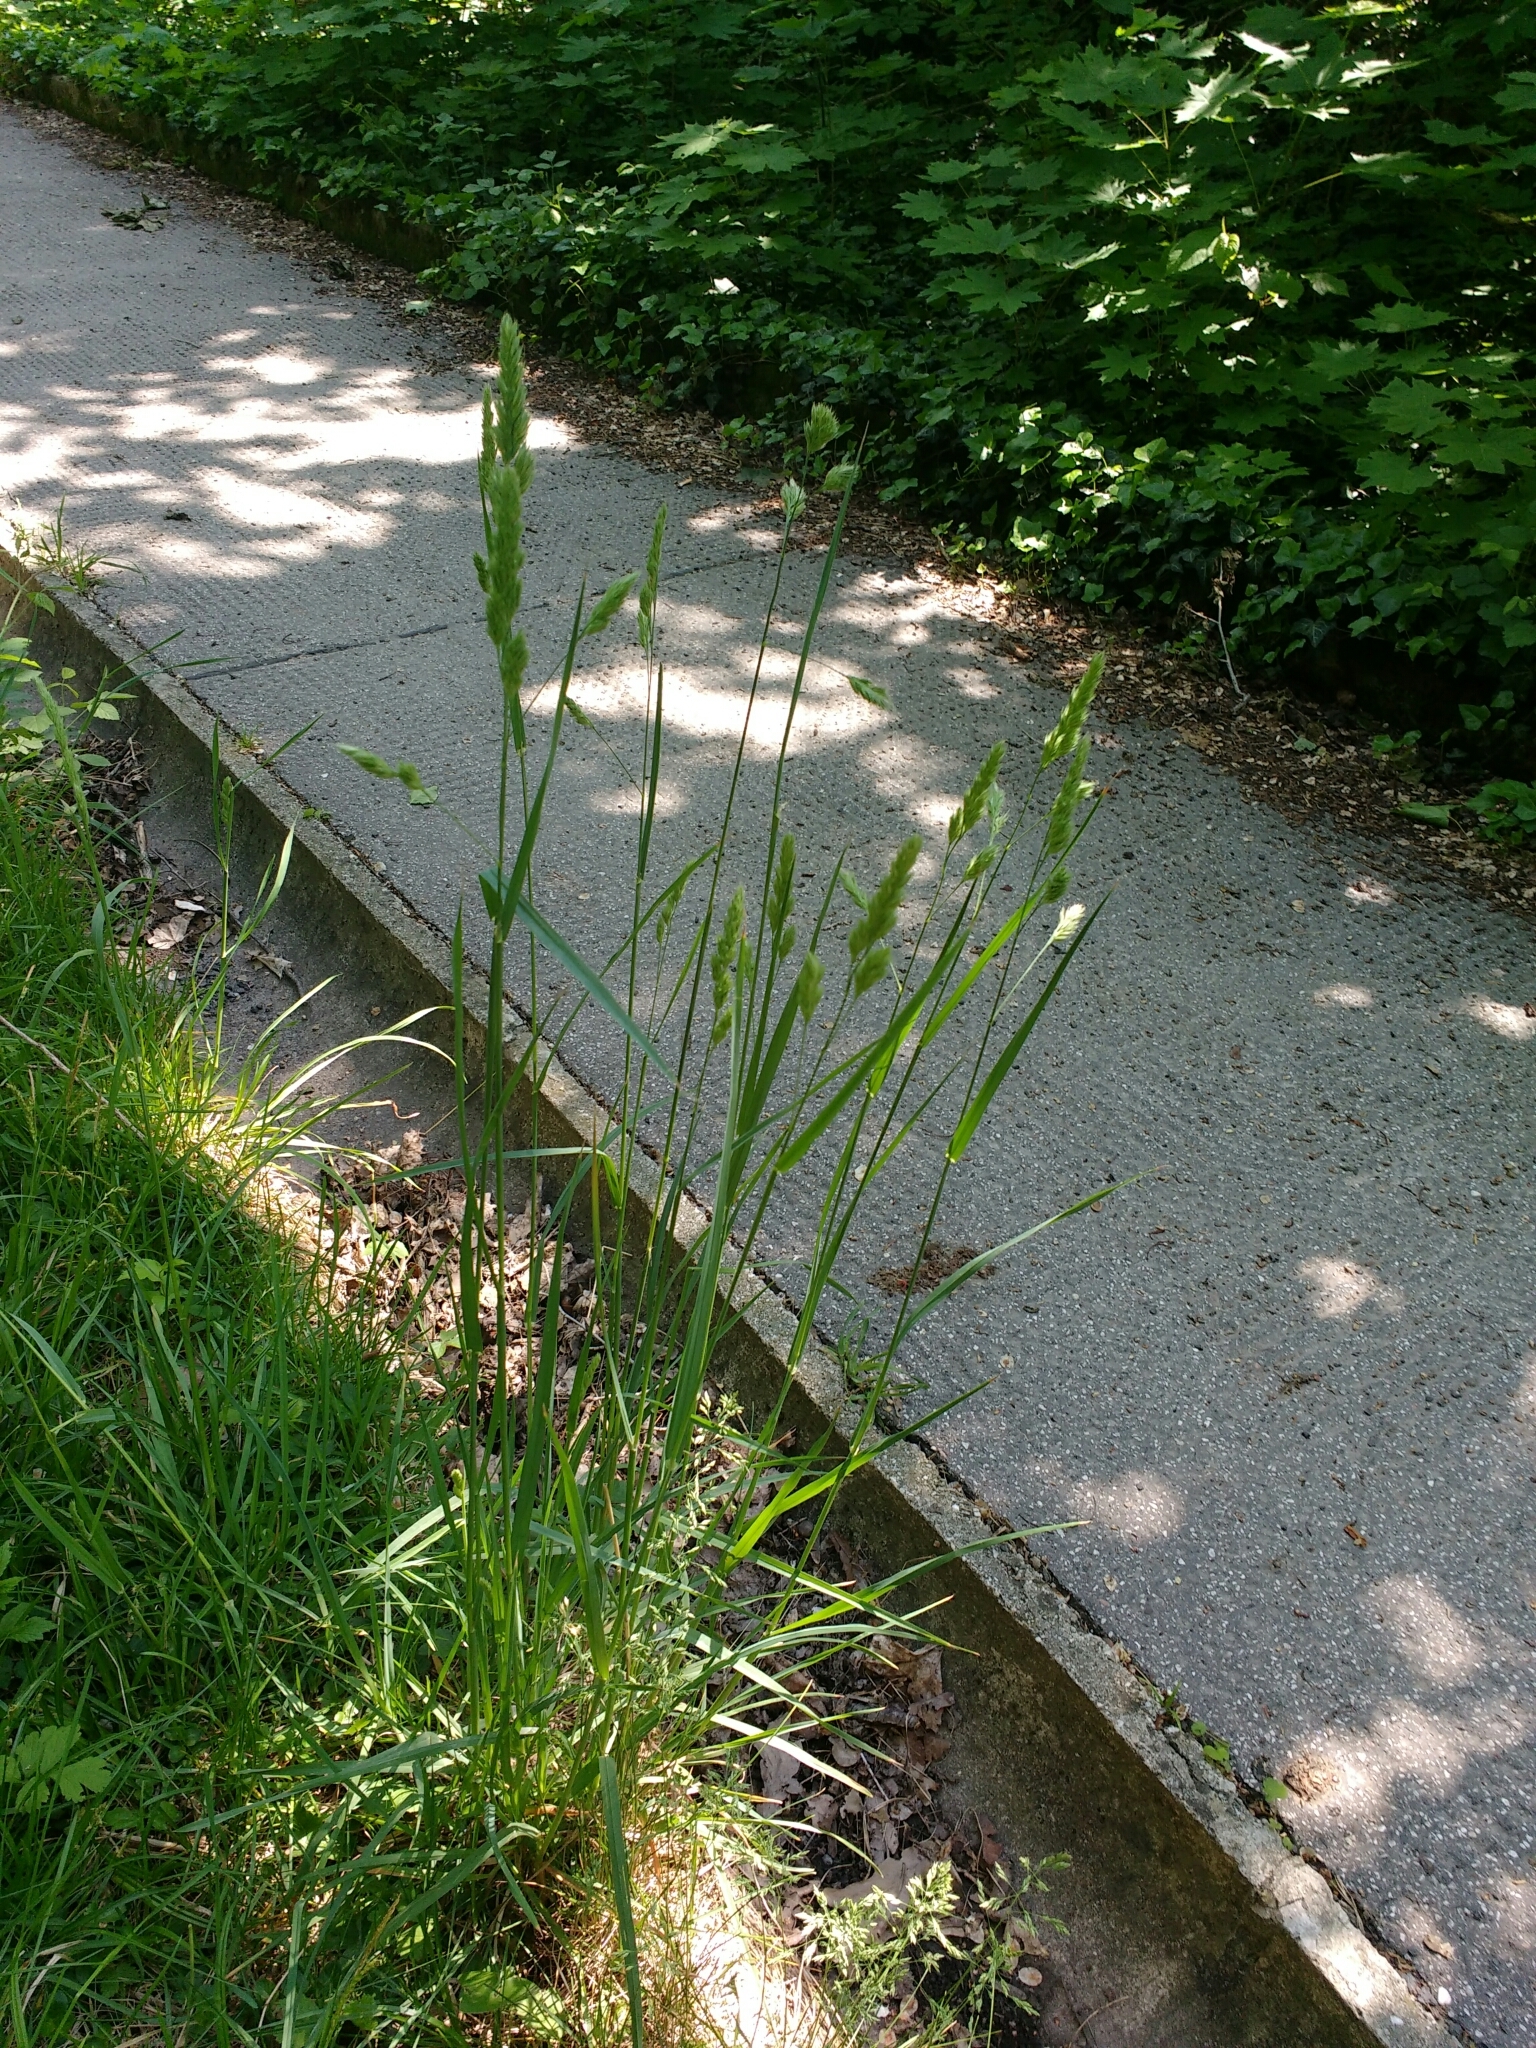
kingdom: Plantae
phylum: Tracheophyta
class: Liliopsida
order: Poales
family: Poaceae
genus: Dactylis
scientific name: Dactylis glomerata
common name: Orchardgrass
